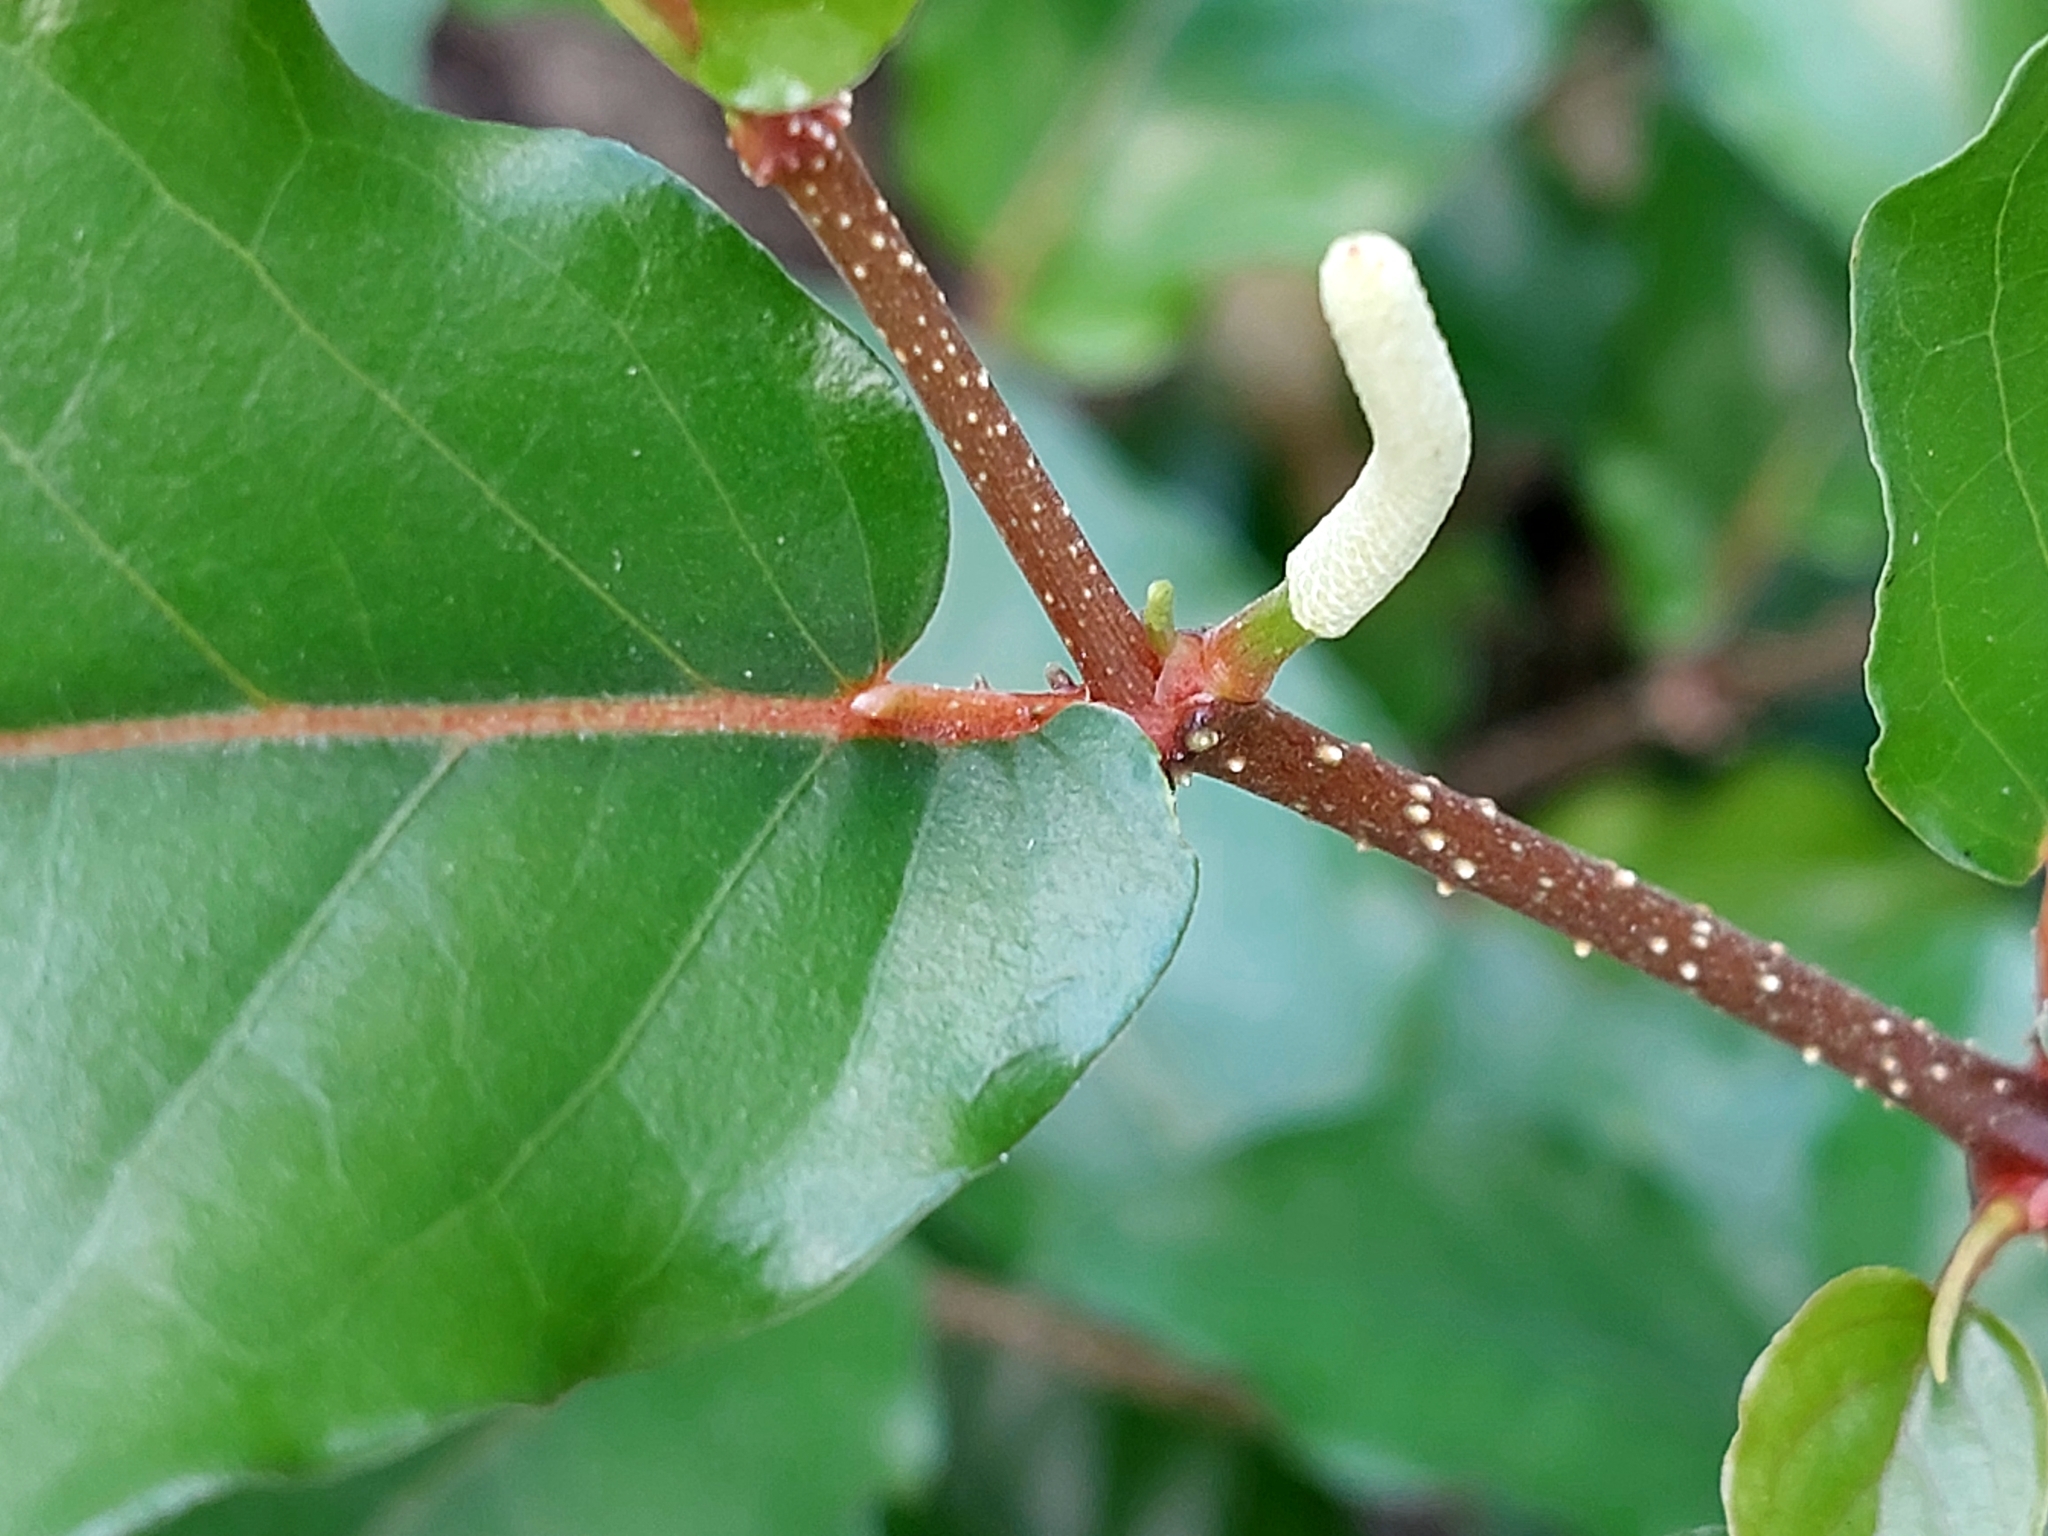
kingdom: Plantae
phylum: Tracheophyta
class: Magnoliopsida
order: Piperales
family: Piperaceae
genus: Piper
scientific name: Piper tuberculatum
